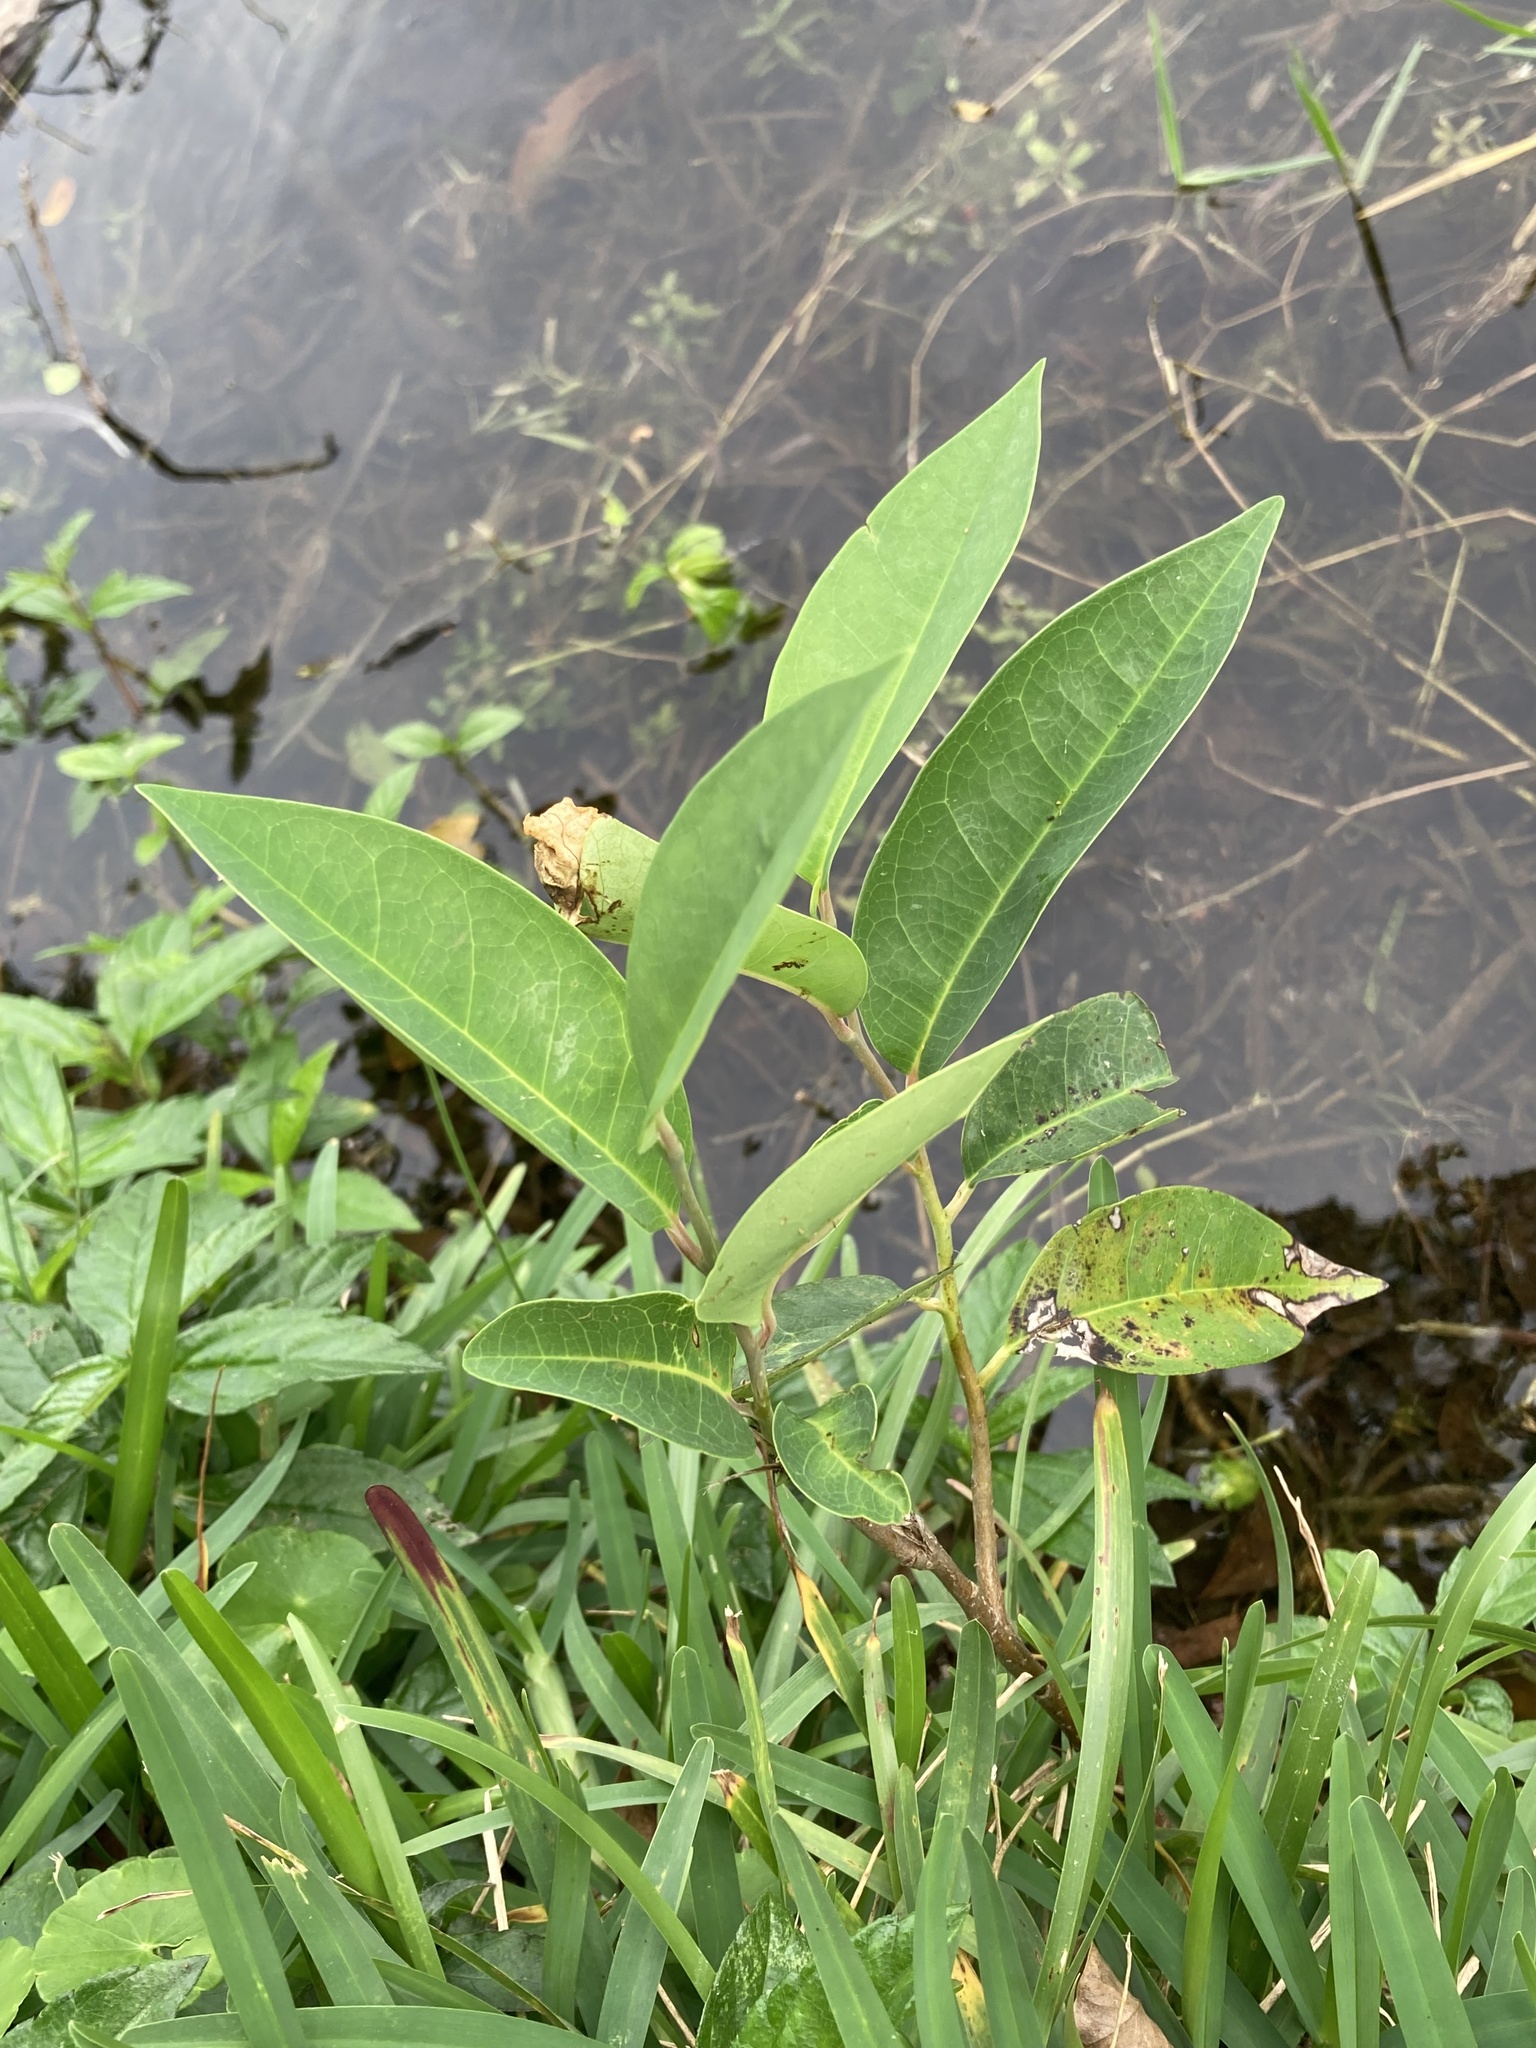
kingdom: Plantae
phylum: Tracheophyta
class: Magnoliopsida
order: Magnoliales
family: Annonaceae
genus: Annona
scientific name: Annona glabra
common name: Monkey apple
